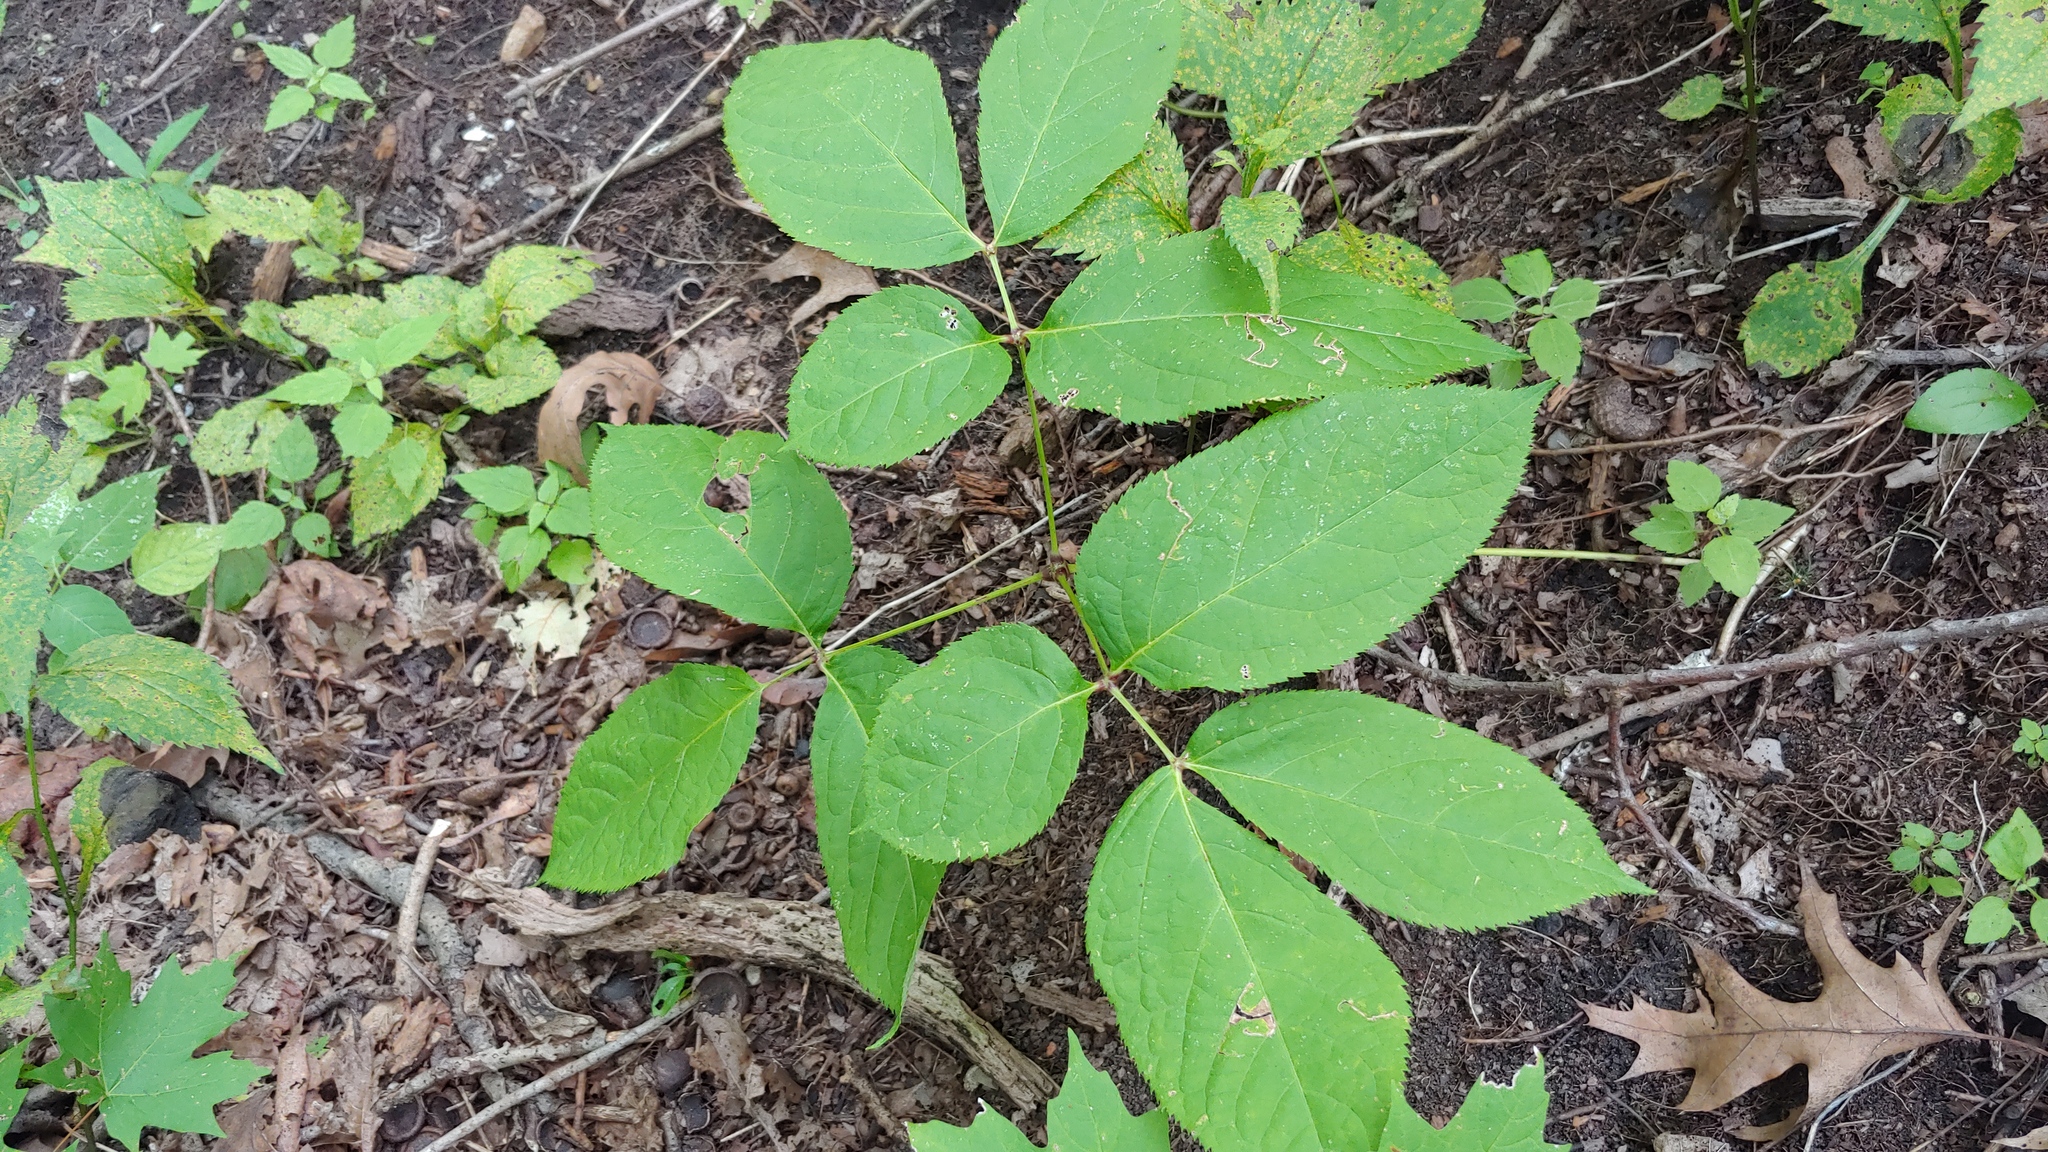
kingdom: Plantae
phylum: Tracheophyta
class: Magnoliopsida
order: Apiales
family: Araliaceae
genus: Aralia
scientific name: Aralia nudicaulis
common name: Wild sarsaparilla
